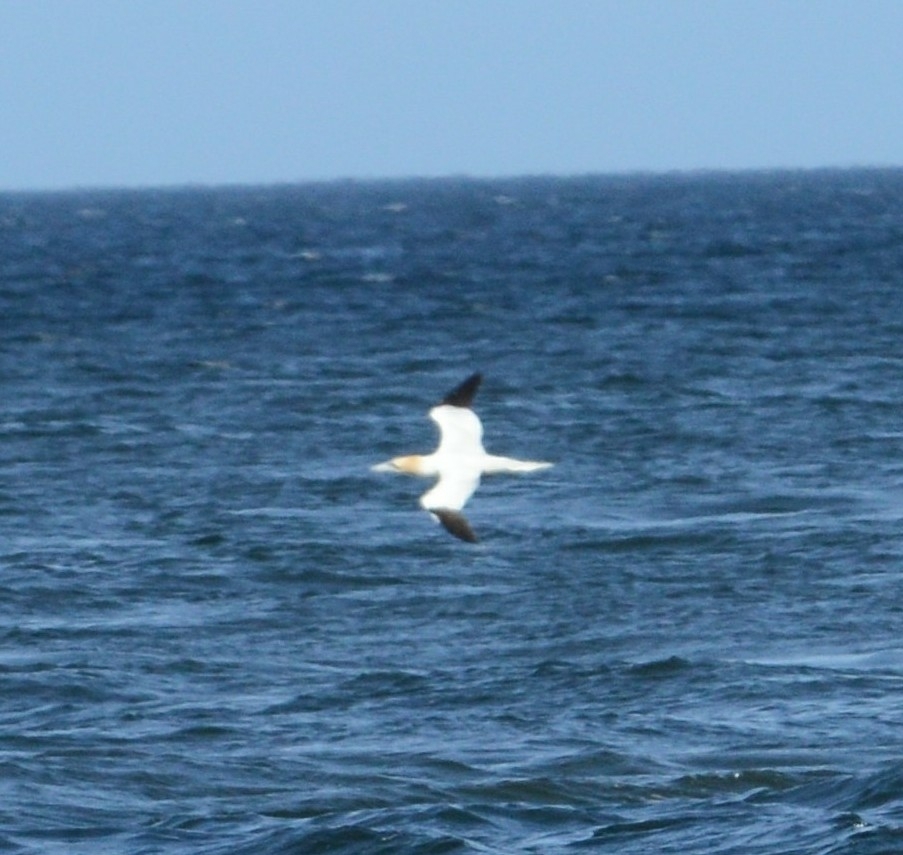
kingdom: Animalia
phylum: Chordata
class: Aves
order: Suliformes
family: Sulidae
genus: Morus
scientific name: Morus bassanus
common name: Northern gannet
